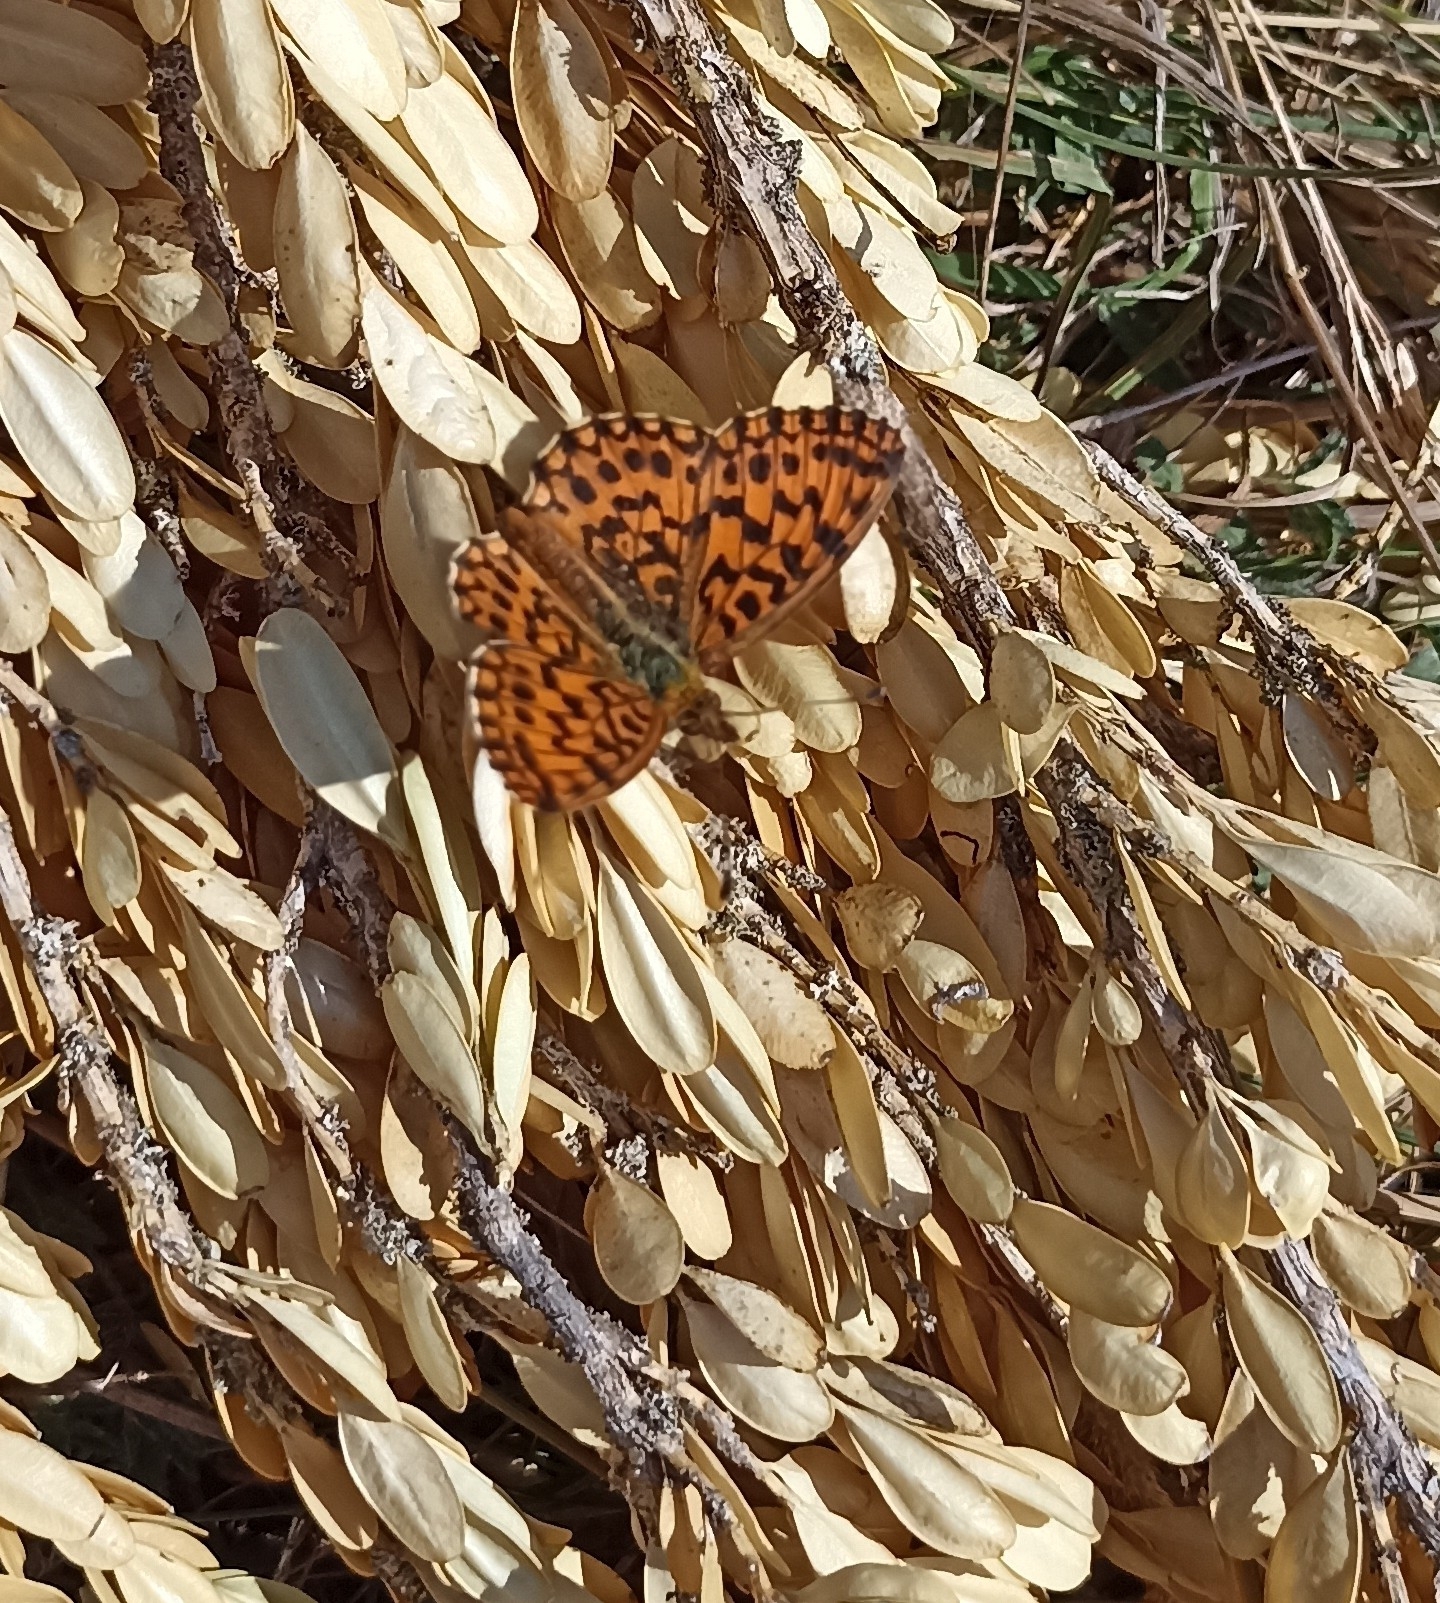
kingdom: Animalia
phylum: Arthropoda
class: Insecta
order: Lepidoptera
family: Nymphalidae
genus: Boloria
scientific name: Boloria dia
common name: Weaver's fritillary
